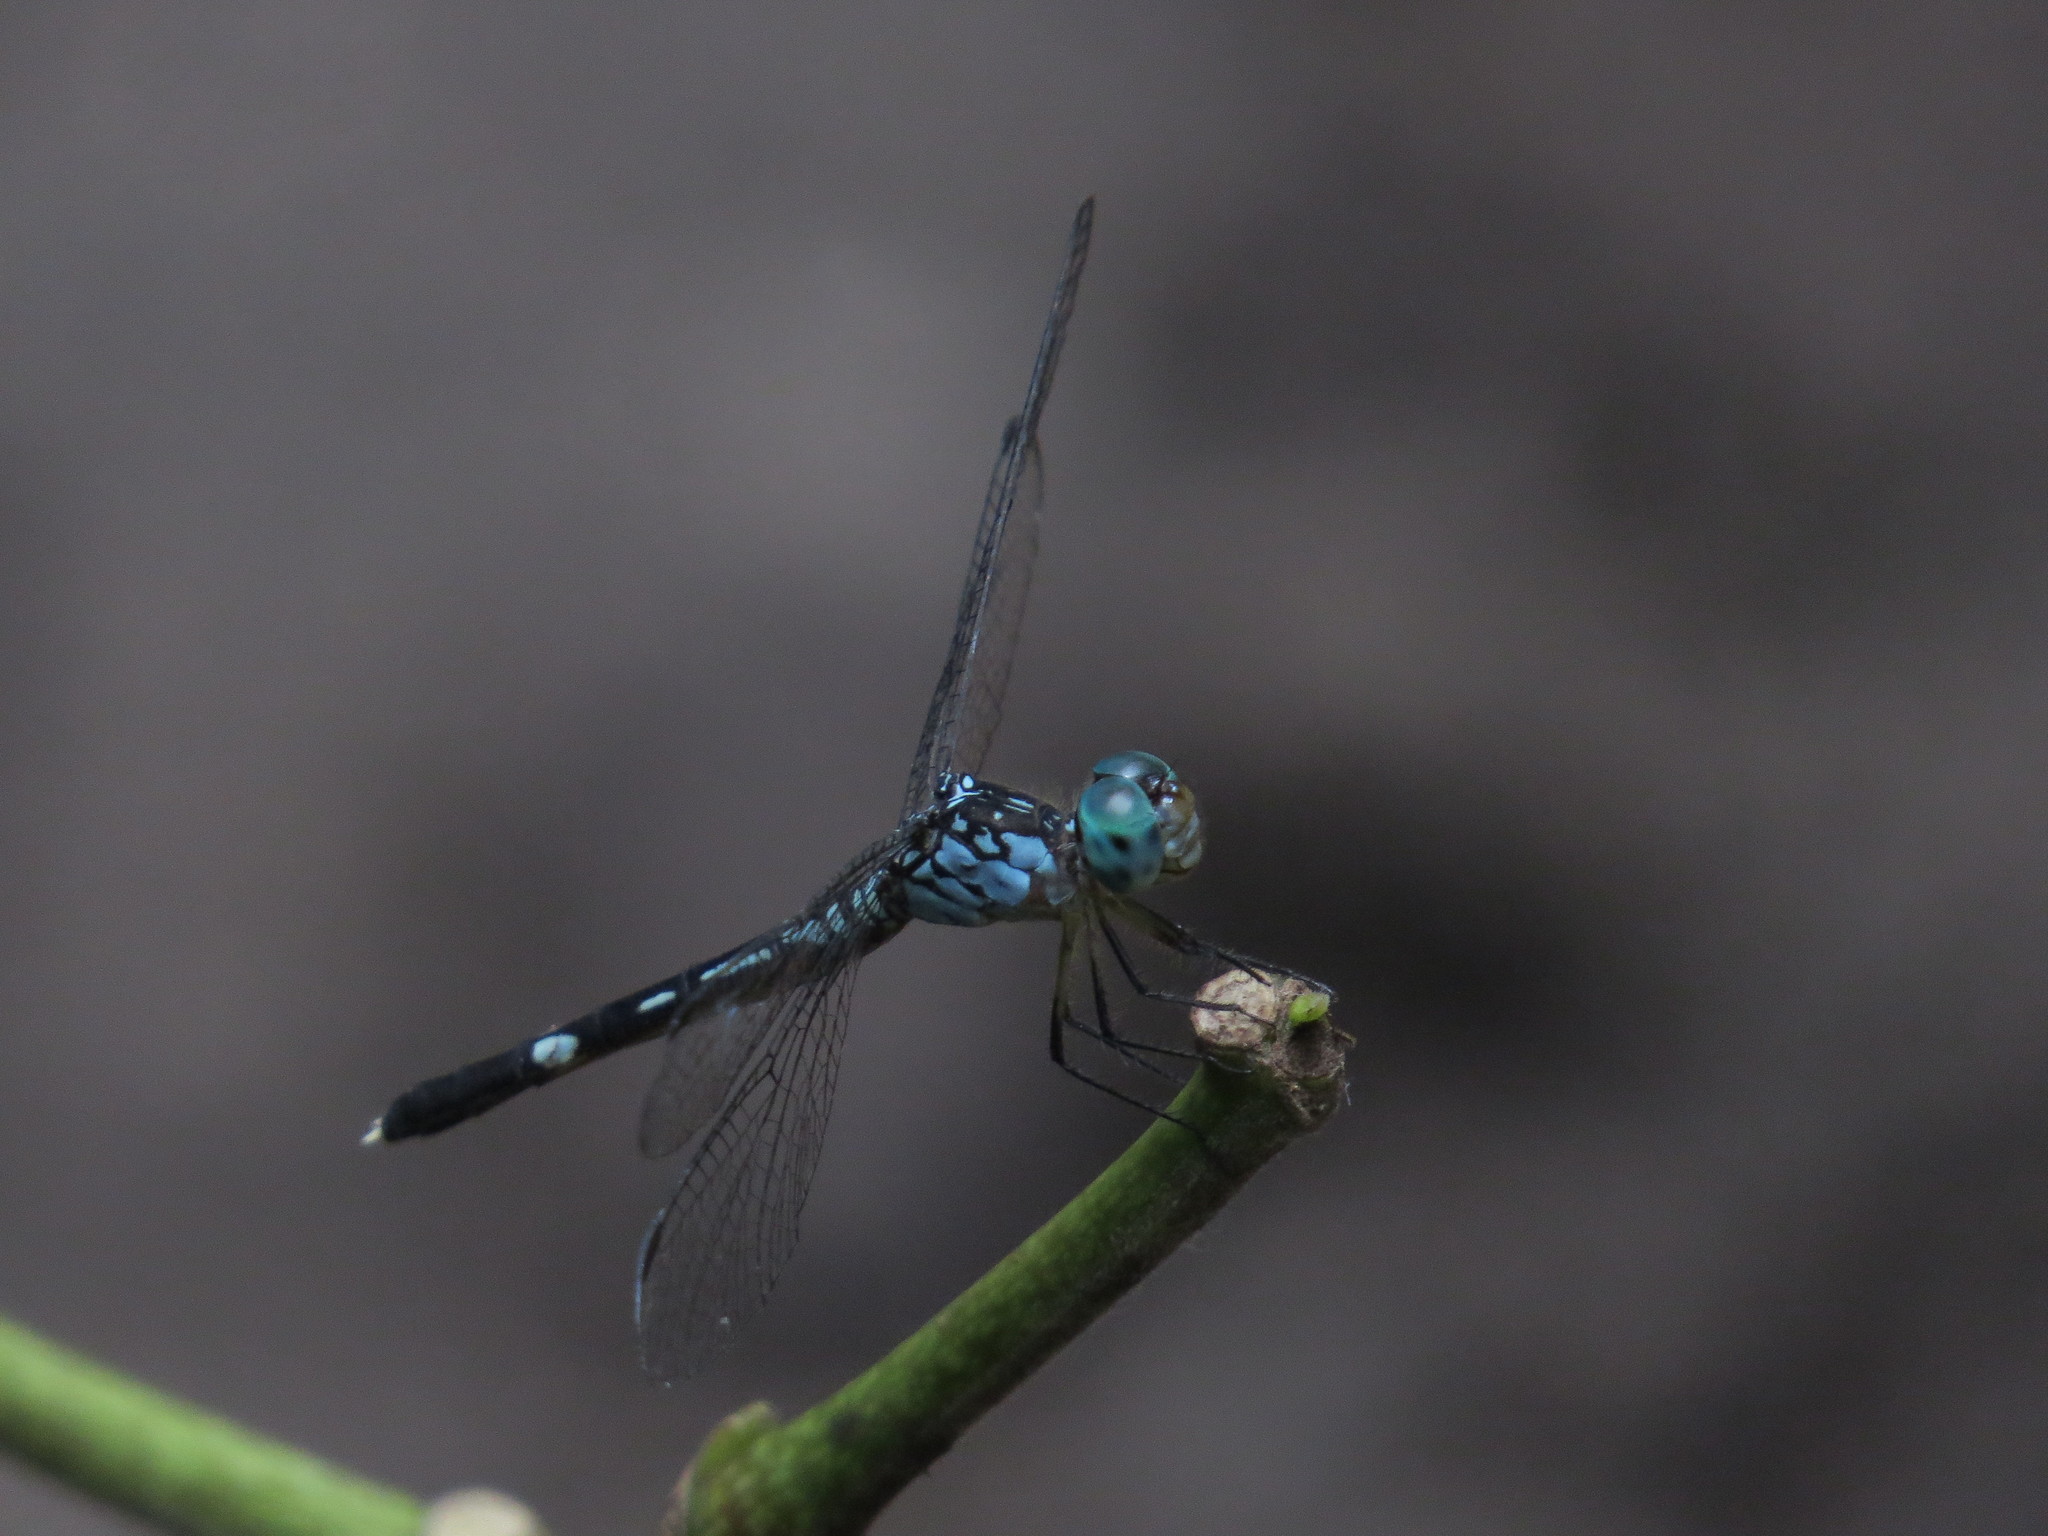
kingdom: Animalia
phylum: Arthropoda
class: Insecta
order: Odonata
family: Libellulidae
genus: Anatya
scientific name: Anatya guttata
